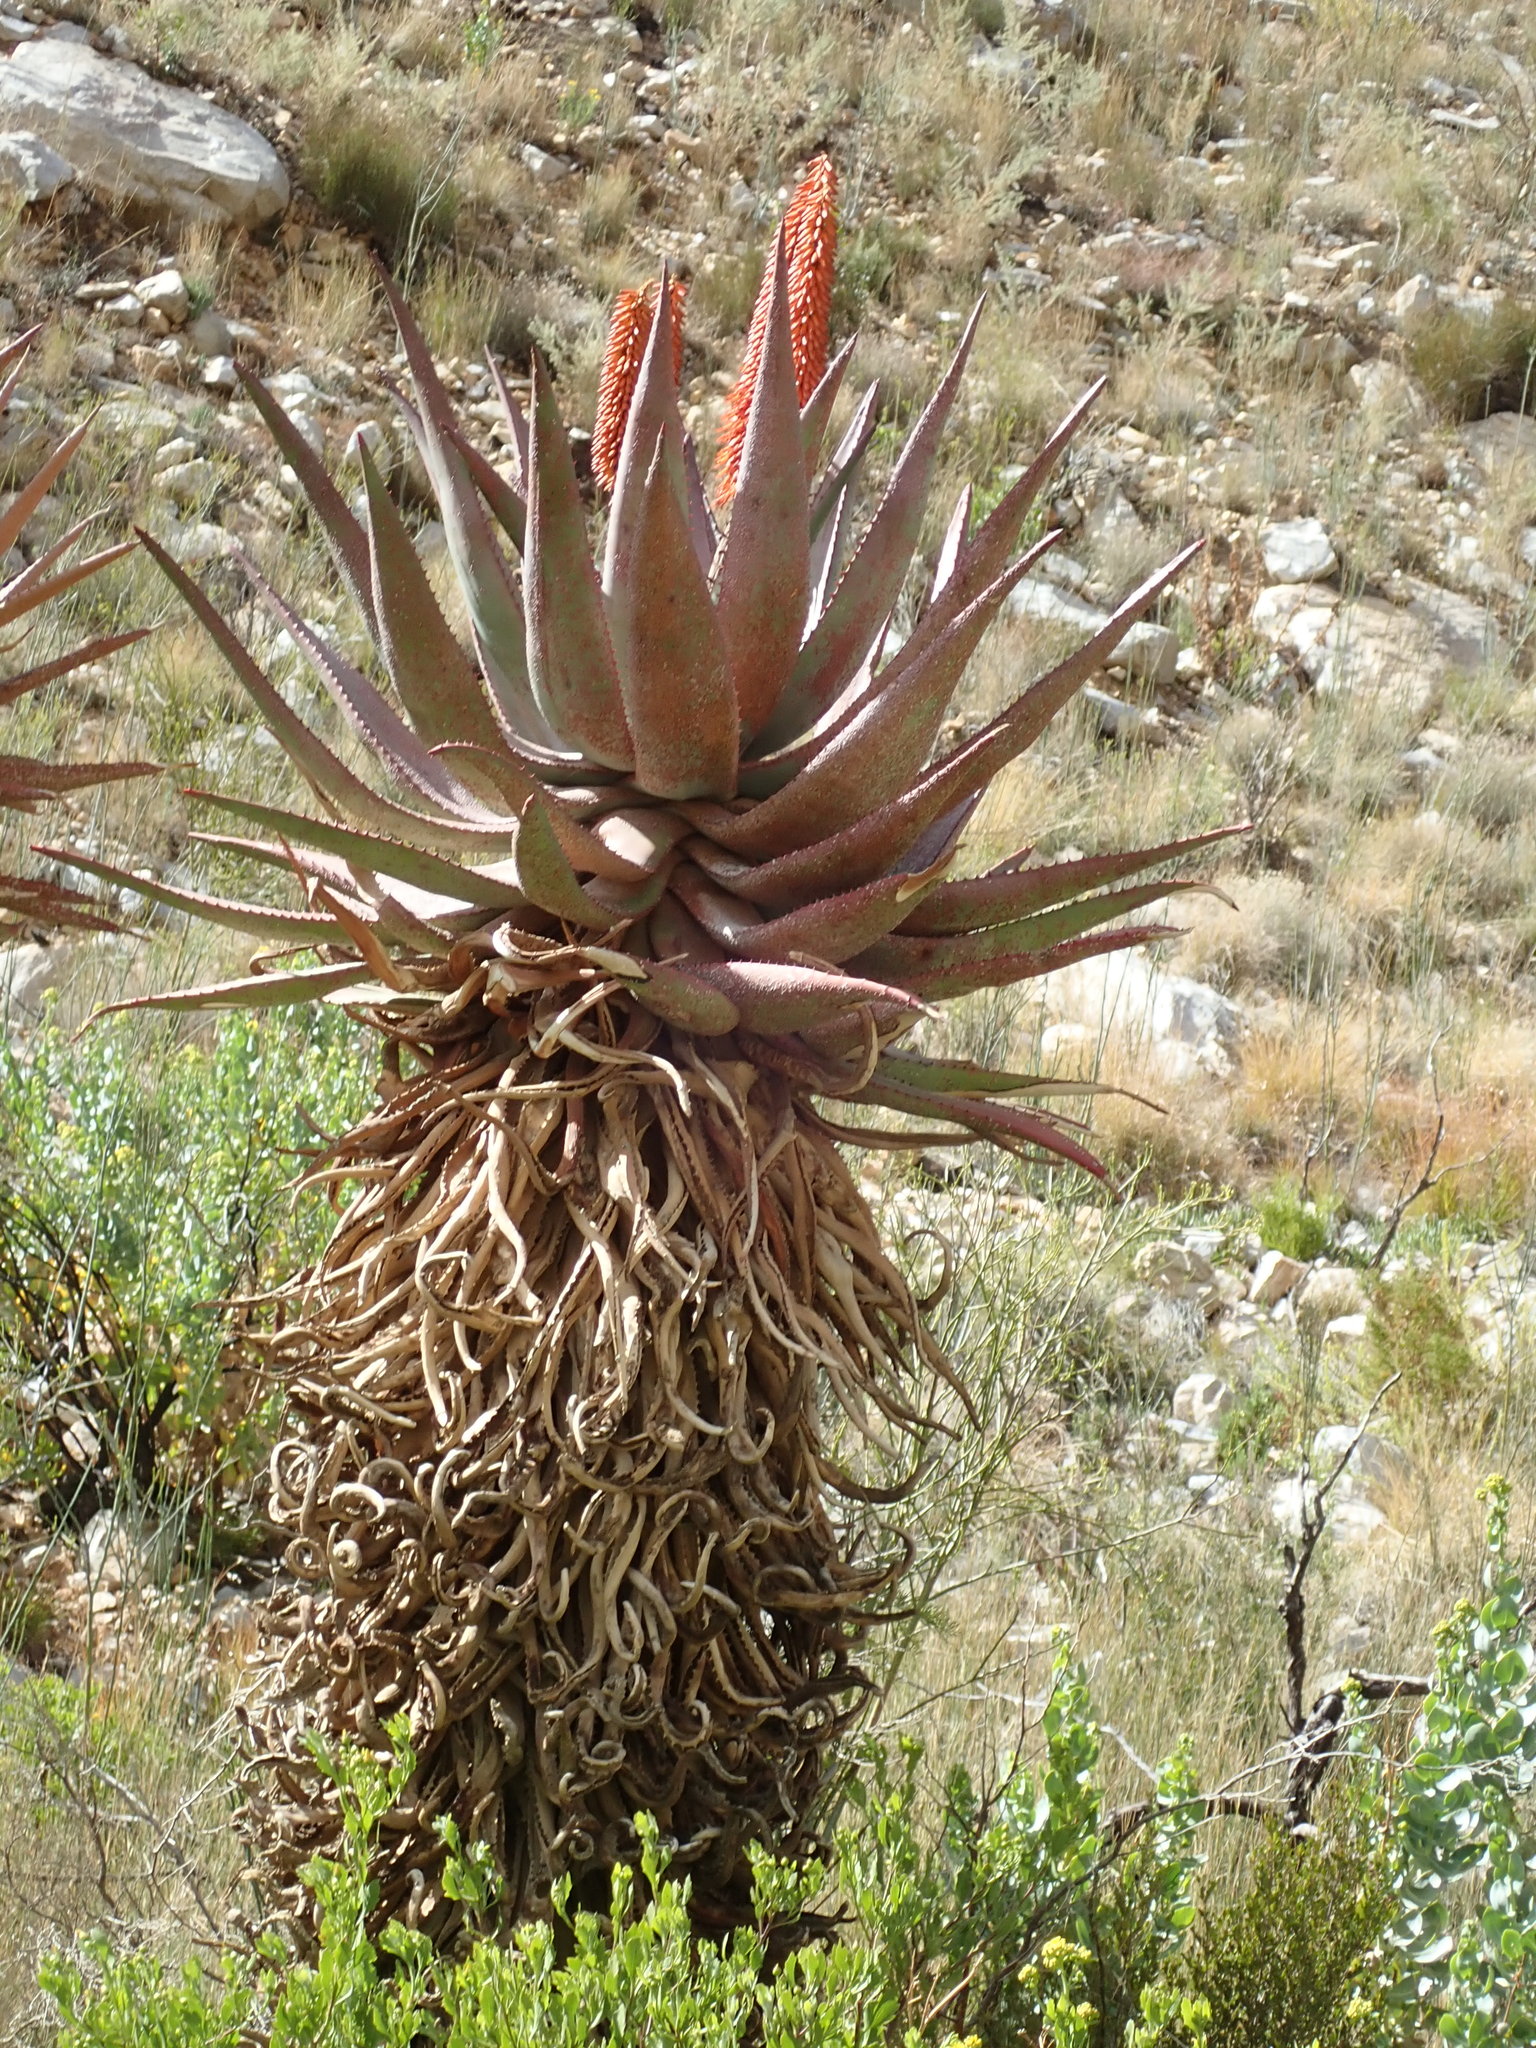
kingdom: Plantae
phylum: Tracheophyta
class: Liliopsida
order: Asparagales
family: Asphodelaceae
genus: Aloe
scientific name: Aloe ferox
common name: Bitter aloe
